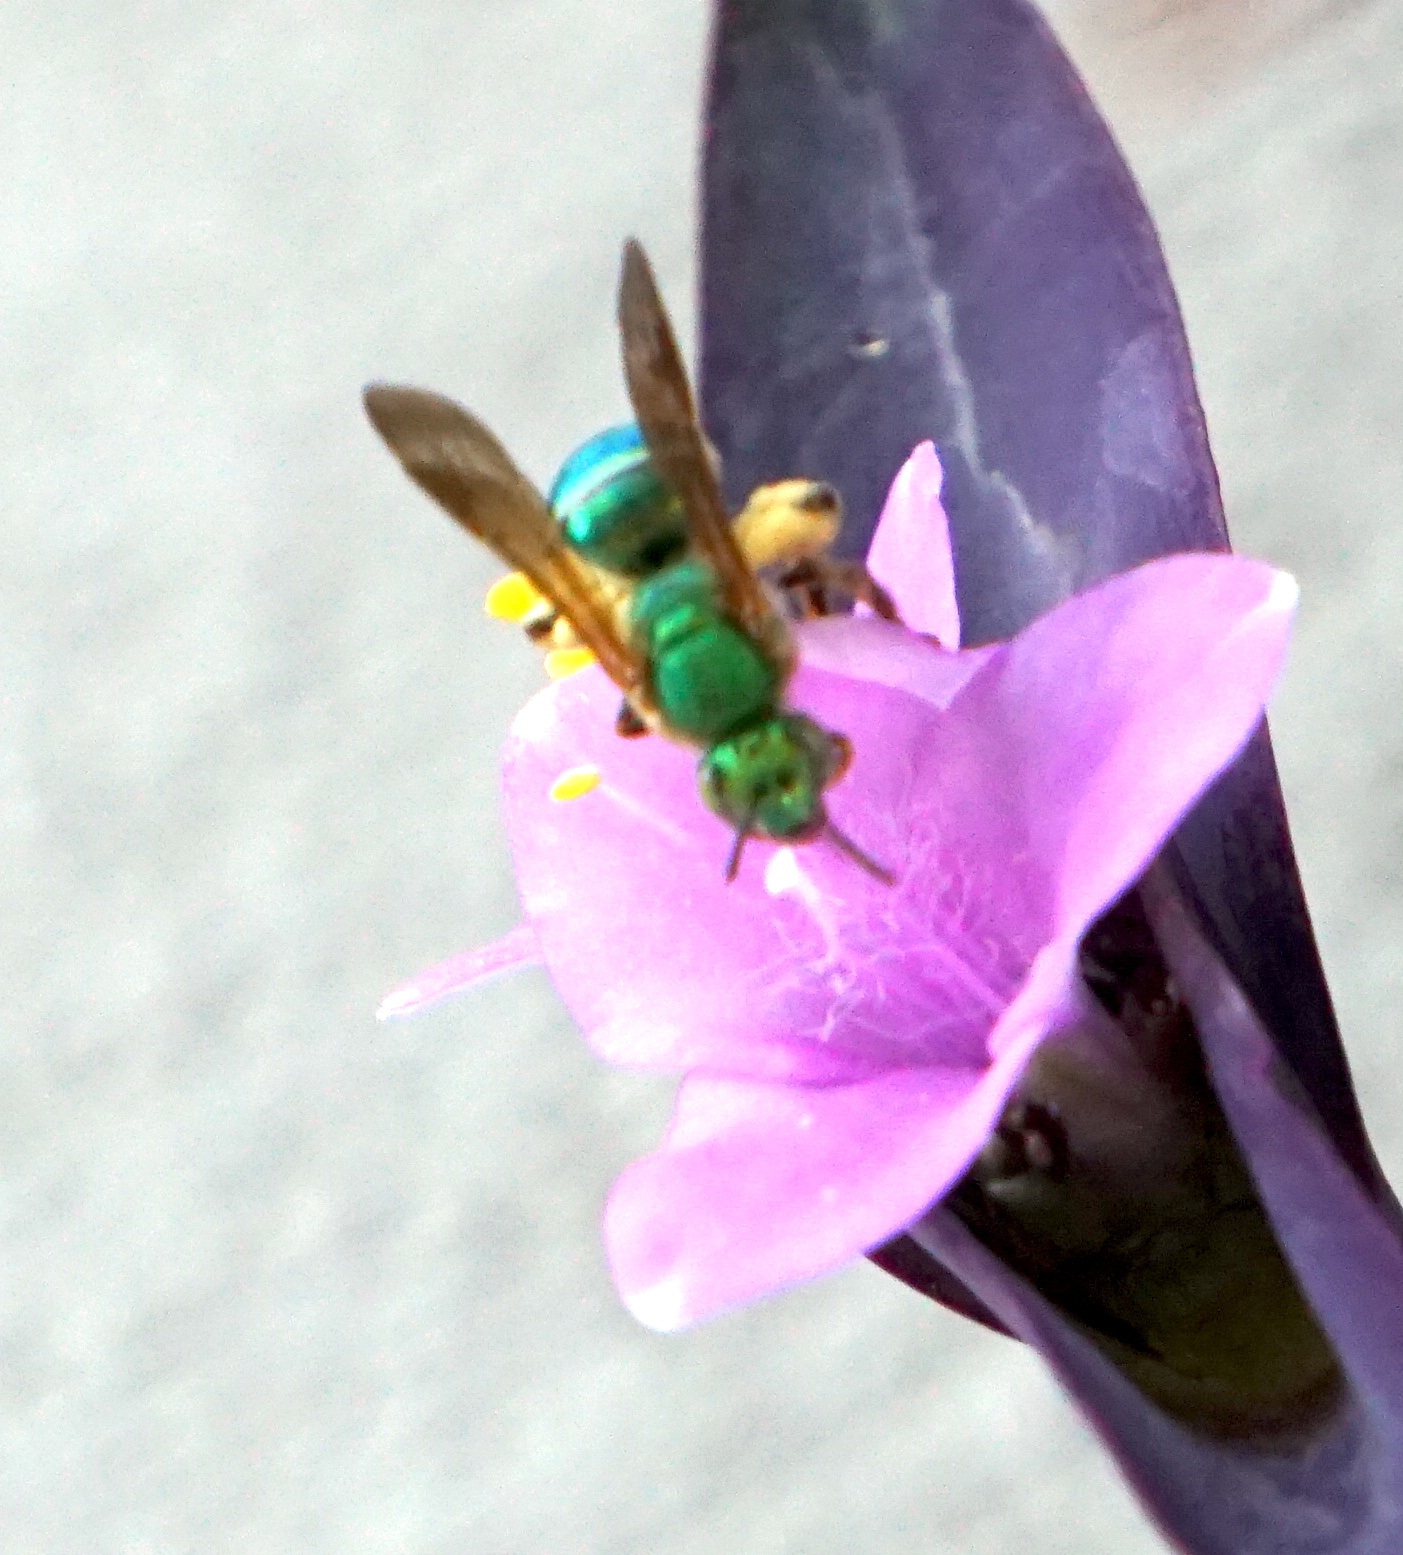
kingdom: Animalia
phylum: Arthropoda
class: Insecta
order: Hymenoptera
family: Halictidae
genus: Agapostemon
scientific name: Agapostemon splendens
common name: Brown-winged striped sweat bee
